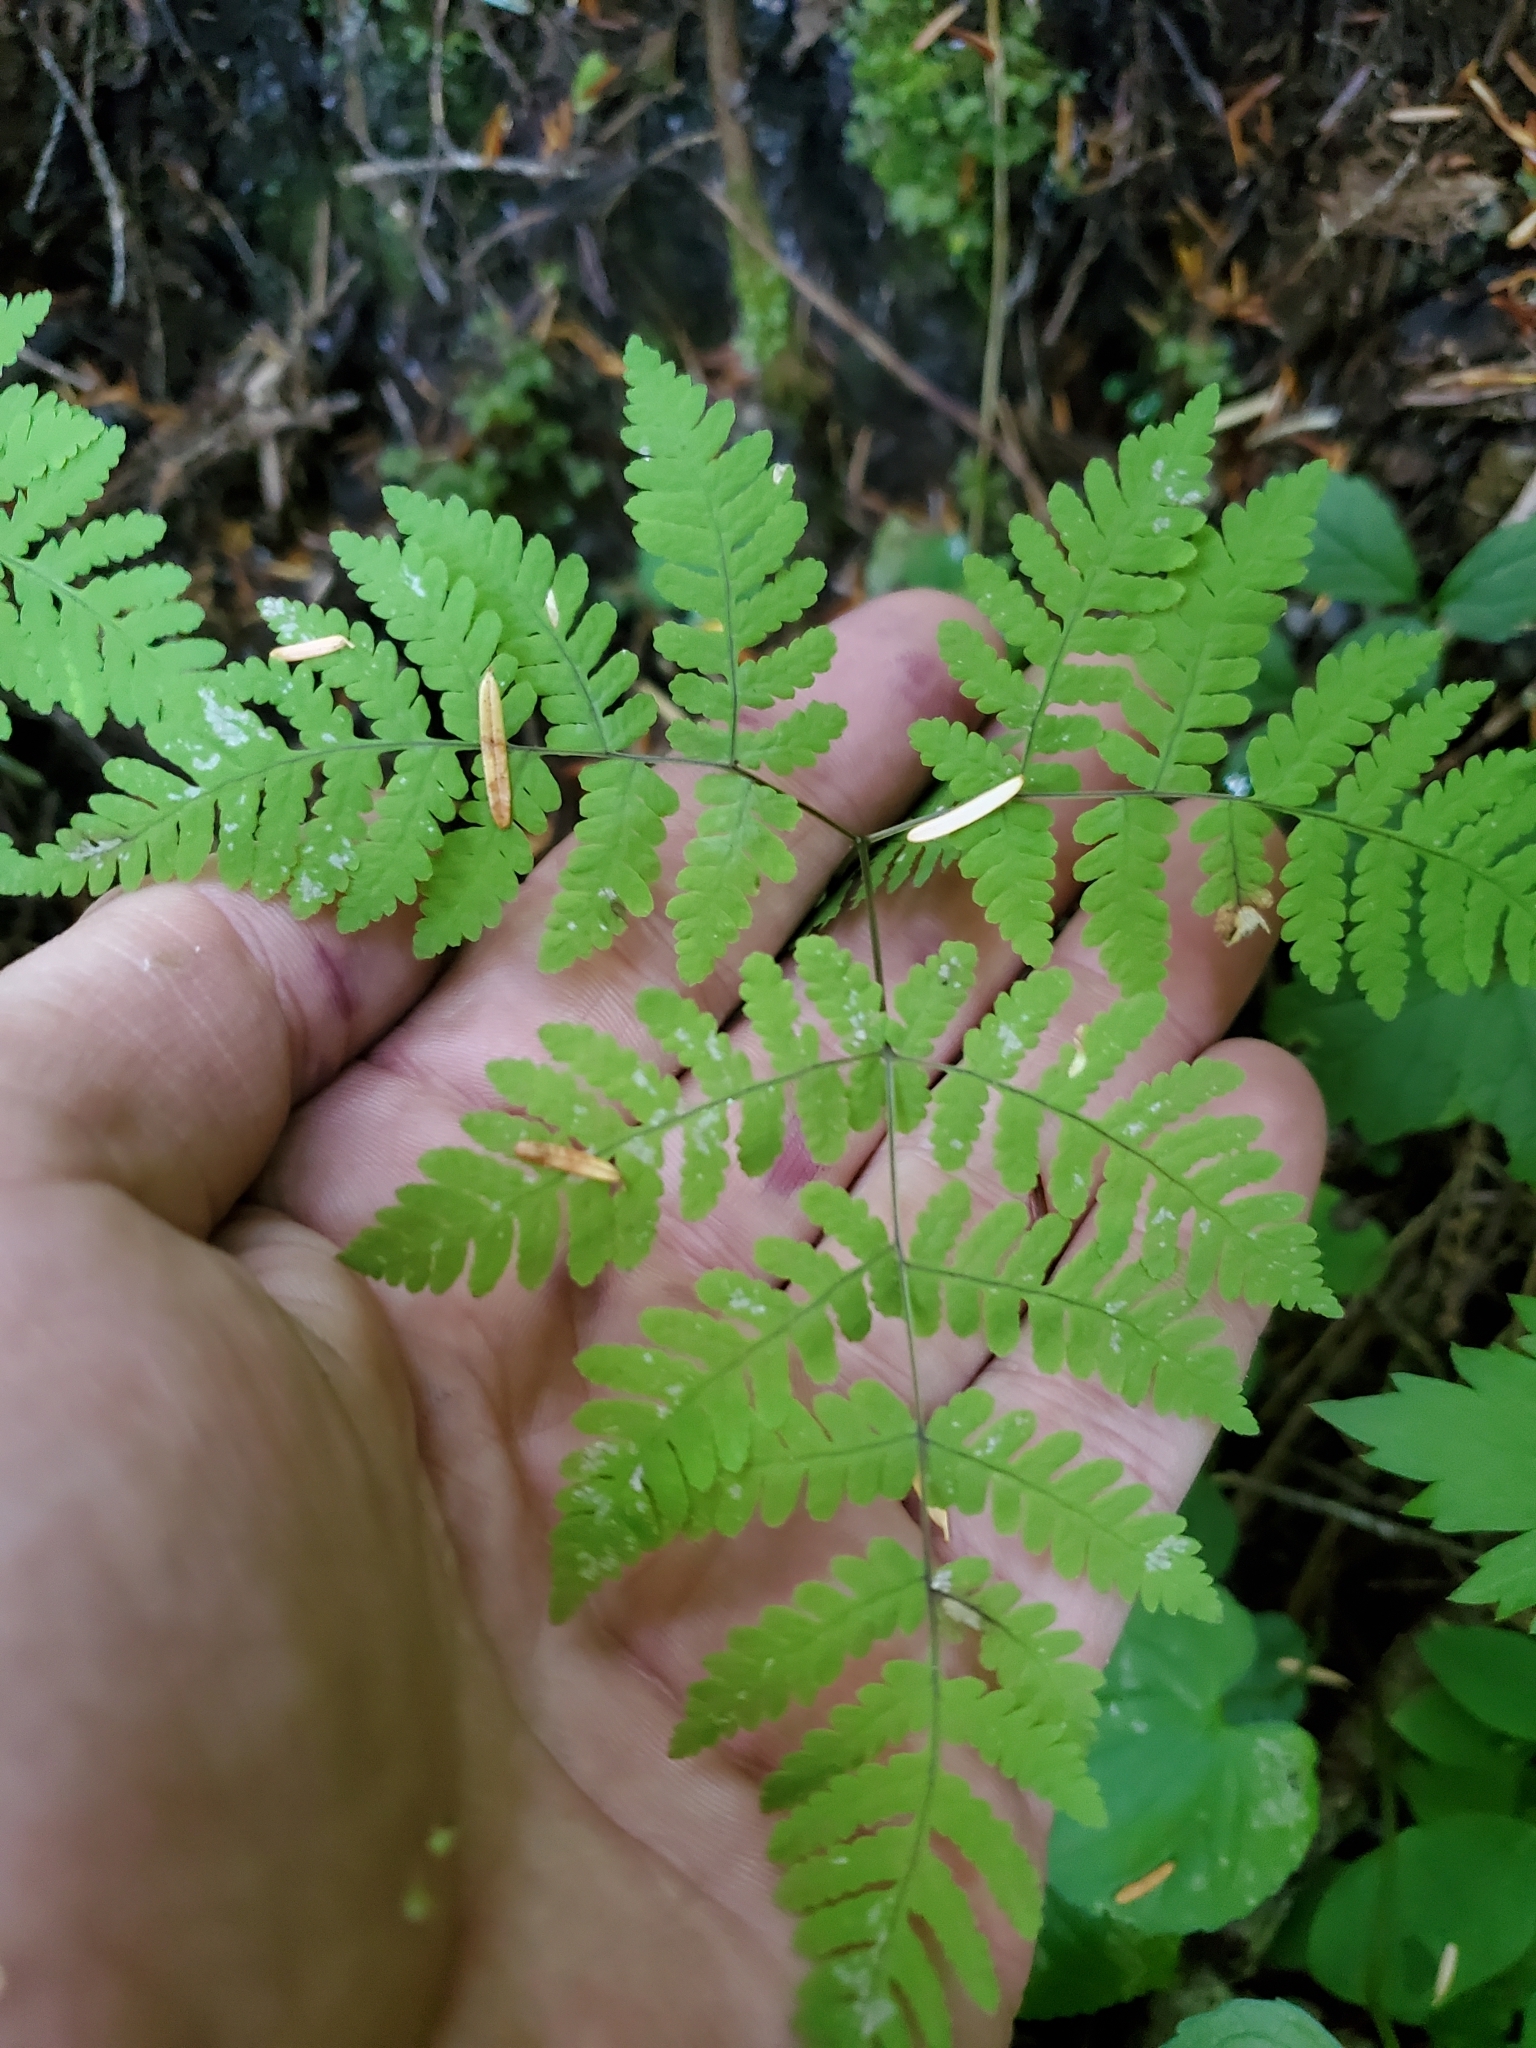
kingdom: Plantae
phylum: Tracheophyta
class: Polypodiopsida
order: Polypodiales
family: Cystopteridaceae
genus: Gymnocarpium
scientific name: Gymnocarpium disjunctum
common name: Western oak fern
